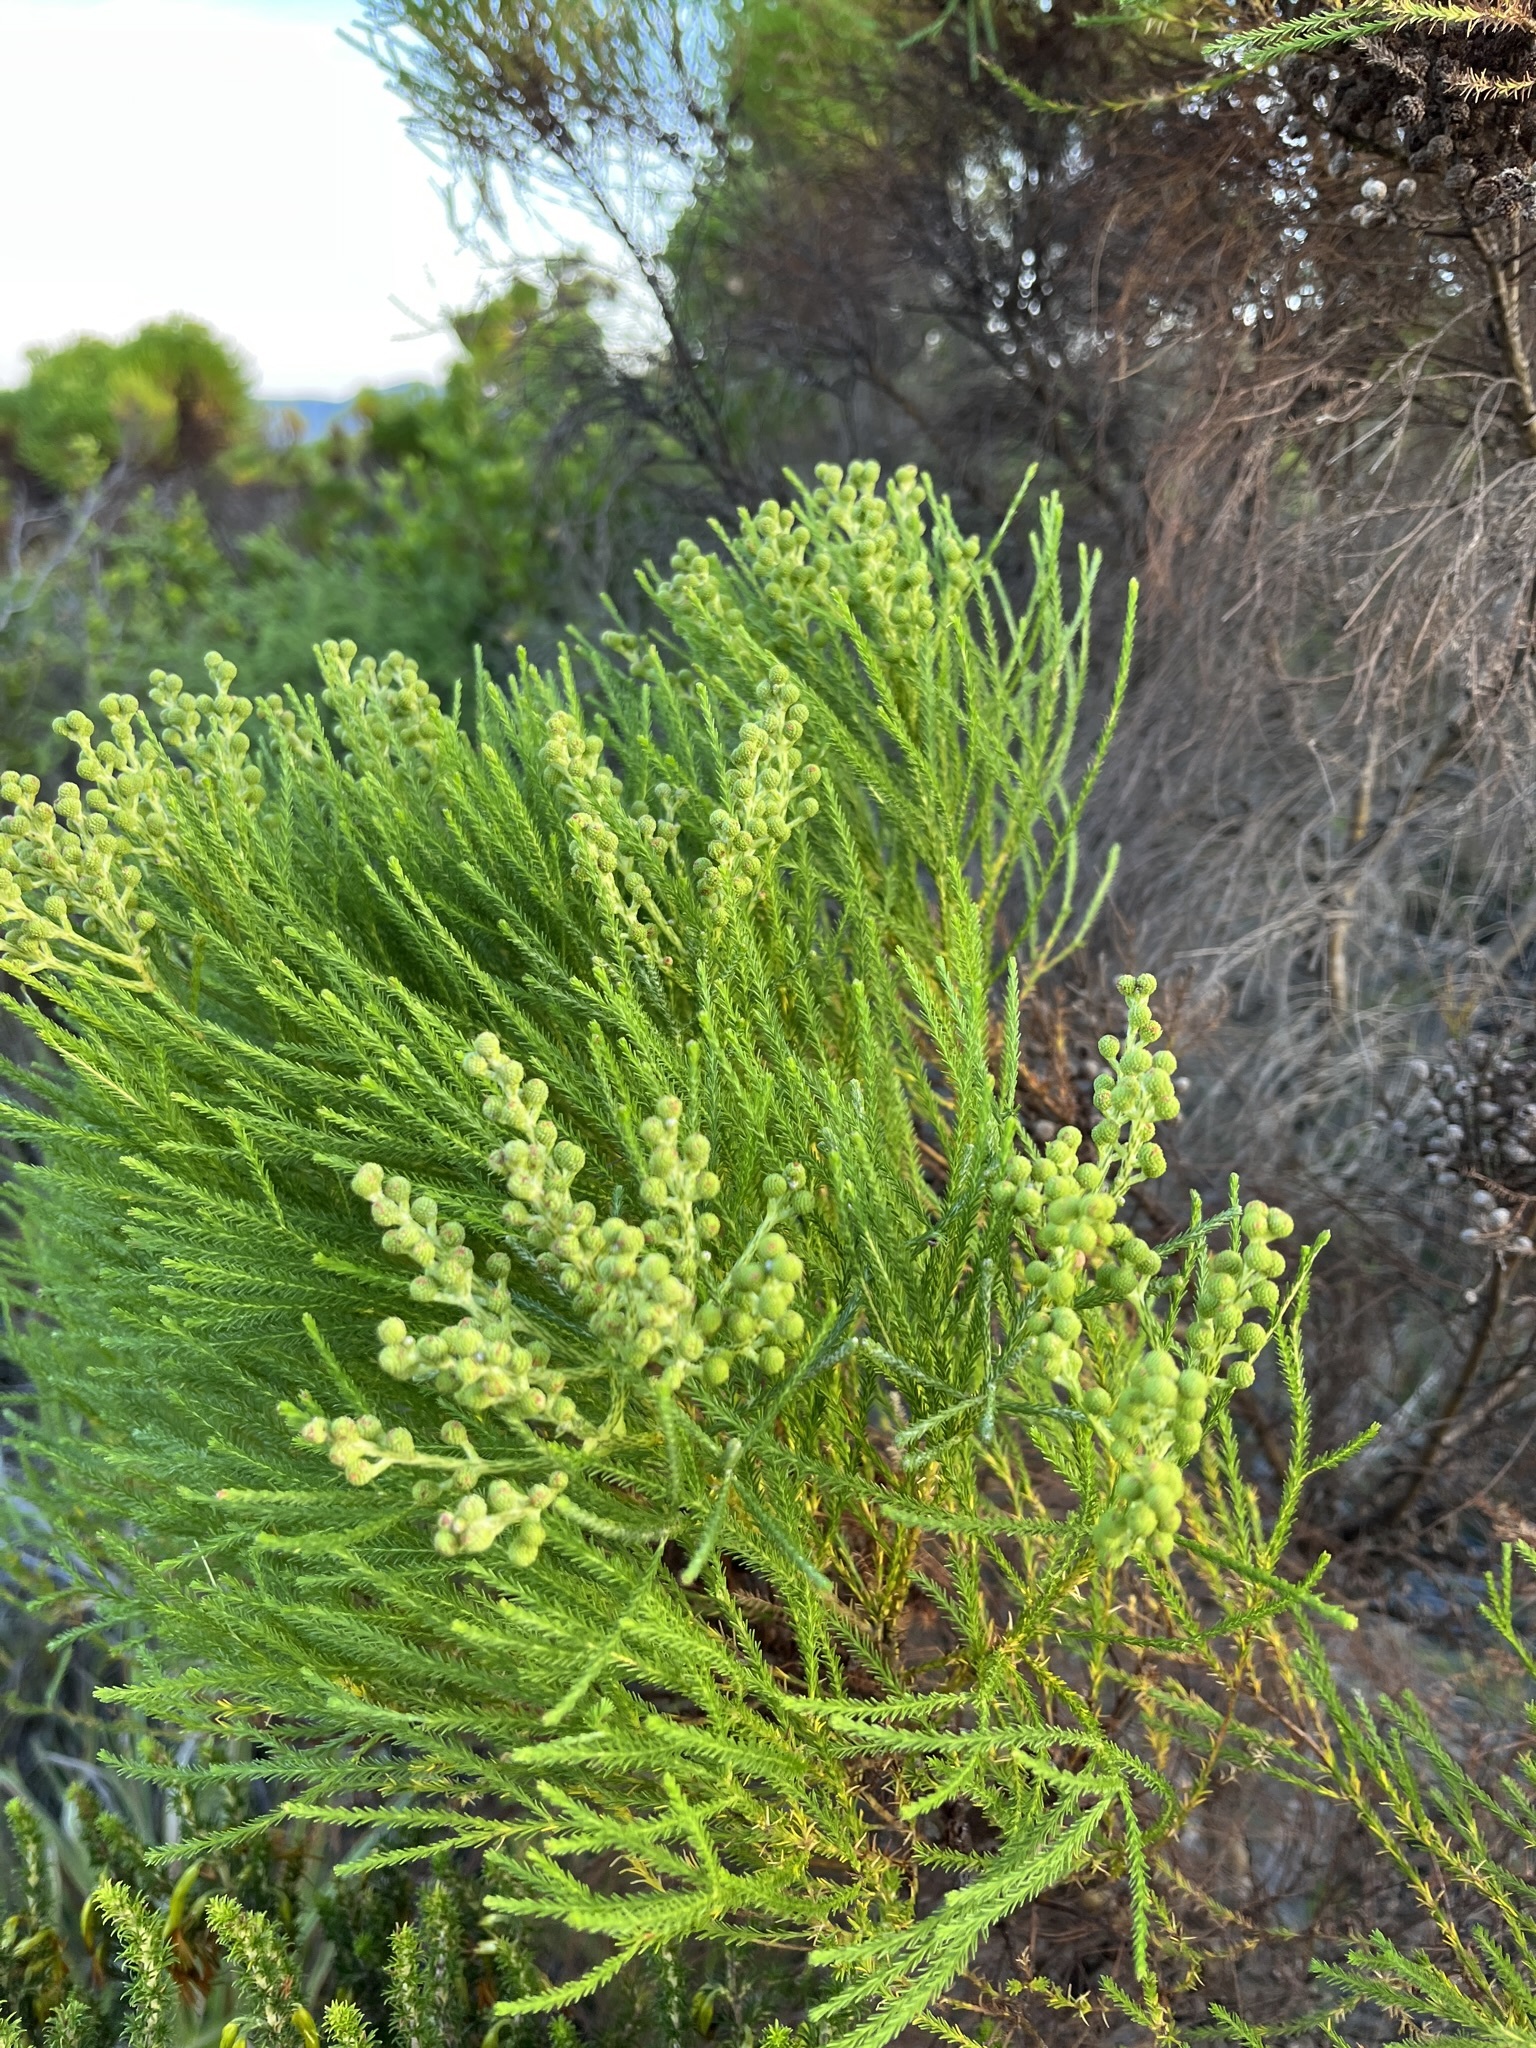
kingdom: Plantae
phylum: Tracheophyta
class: Magnoliopsida
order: Bruniales
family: Bruniaceae
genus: Berzelia
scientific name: Berzelia lanuginosa
